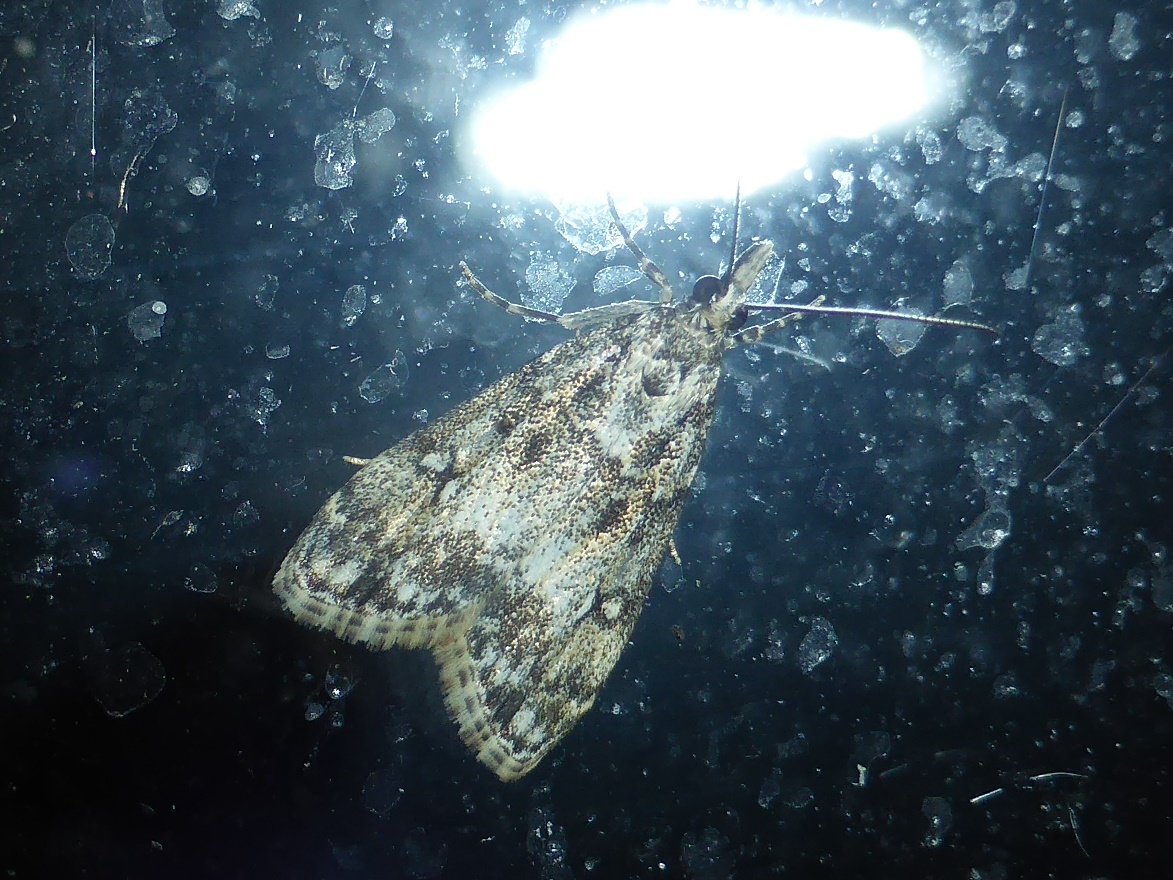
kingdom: Animalia
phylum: Arthropoda
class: Insecta
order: Lepidoptera
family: Crambidae
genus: Eudonia
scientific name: Eudonia lacustrata
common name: Little grey
